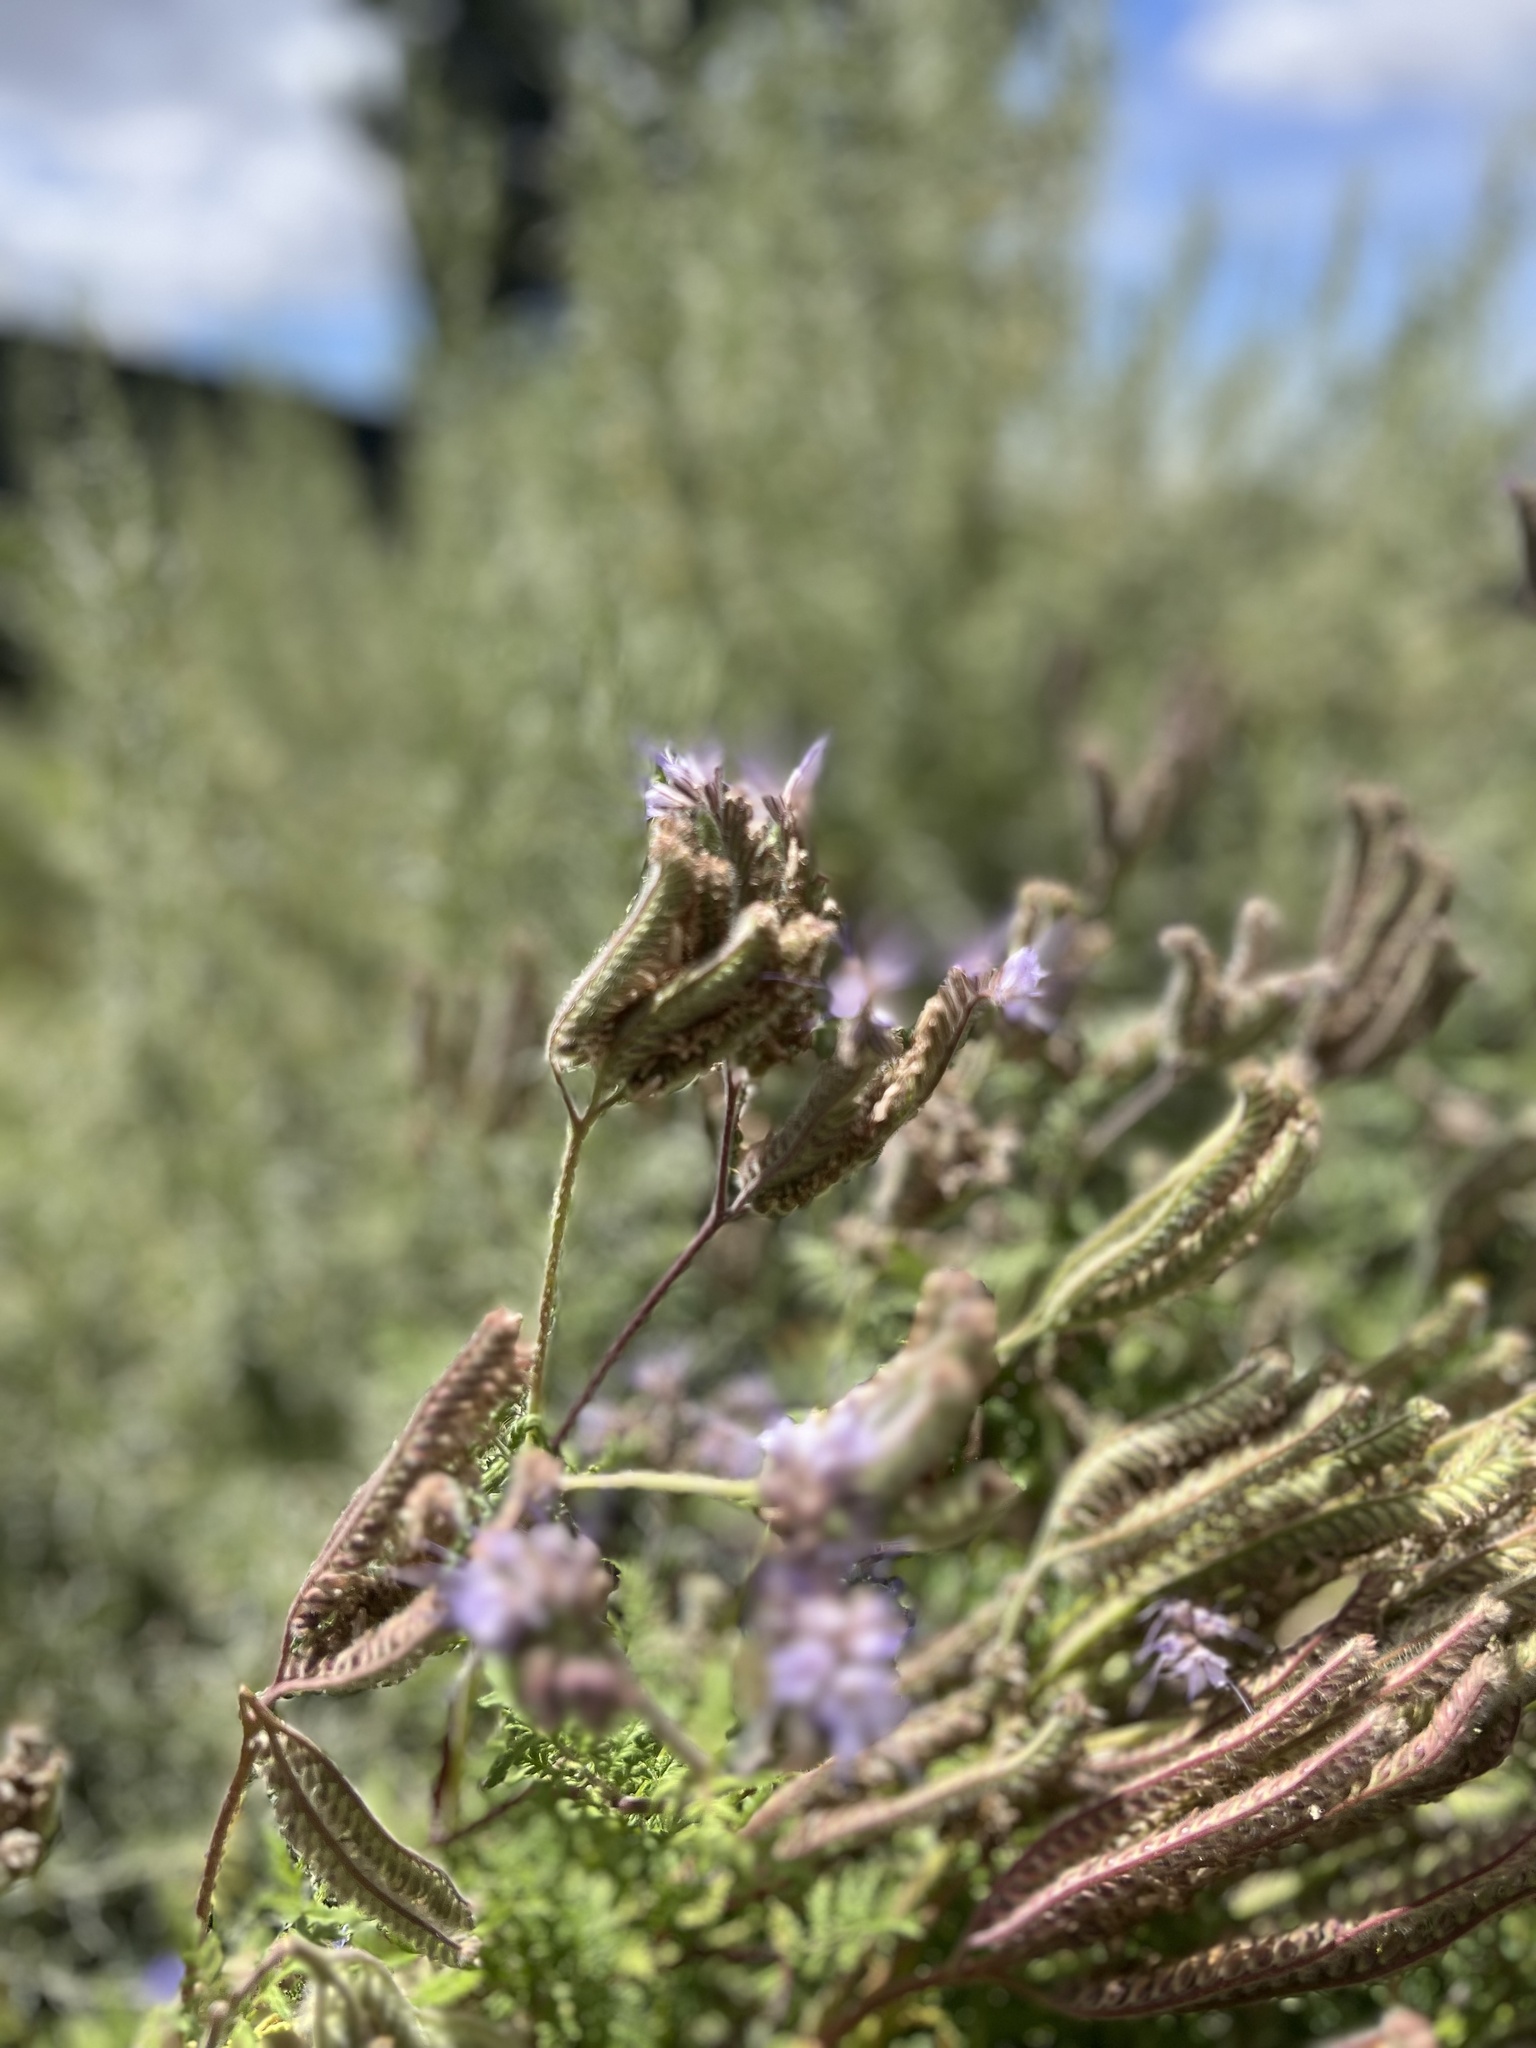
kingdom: Plantae
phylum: Tracheophyta
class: Magnoliopsida
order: Boraginales
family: Hydrophyllaceae
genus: Phacelia
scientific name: Phacelia tanacetifolia
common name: Phacelia
